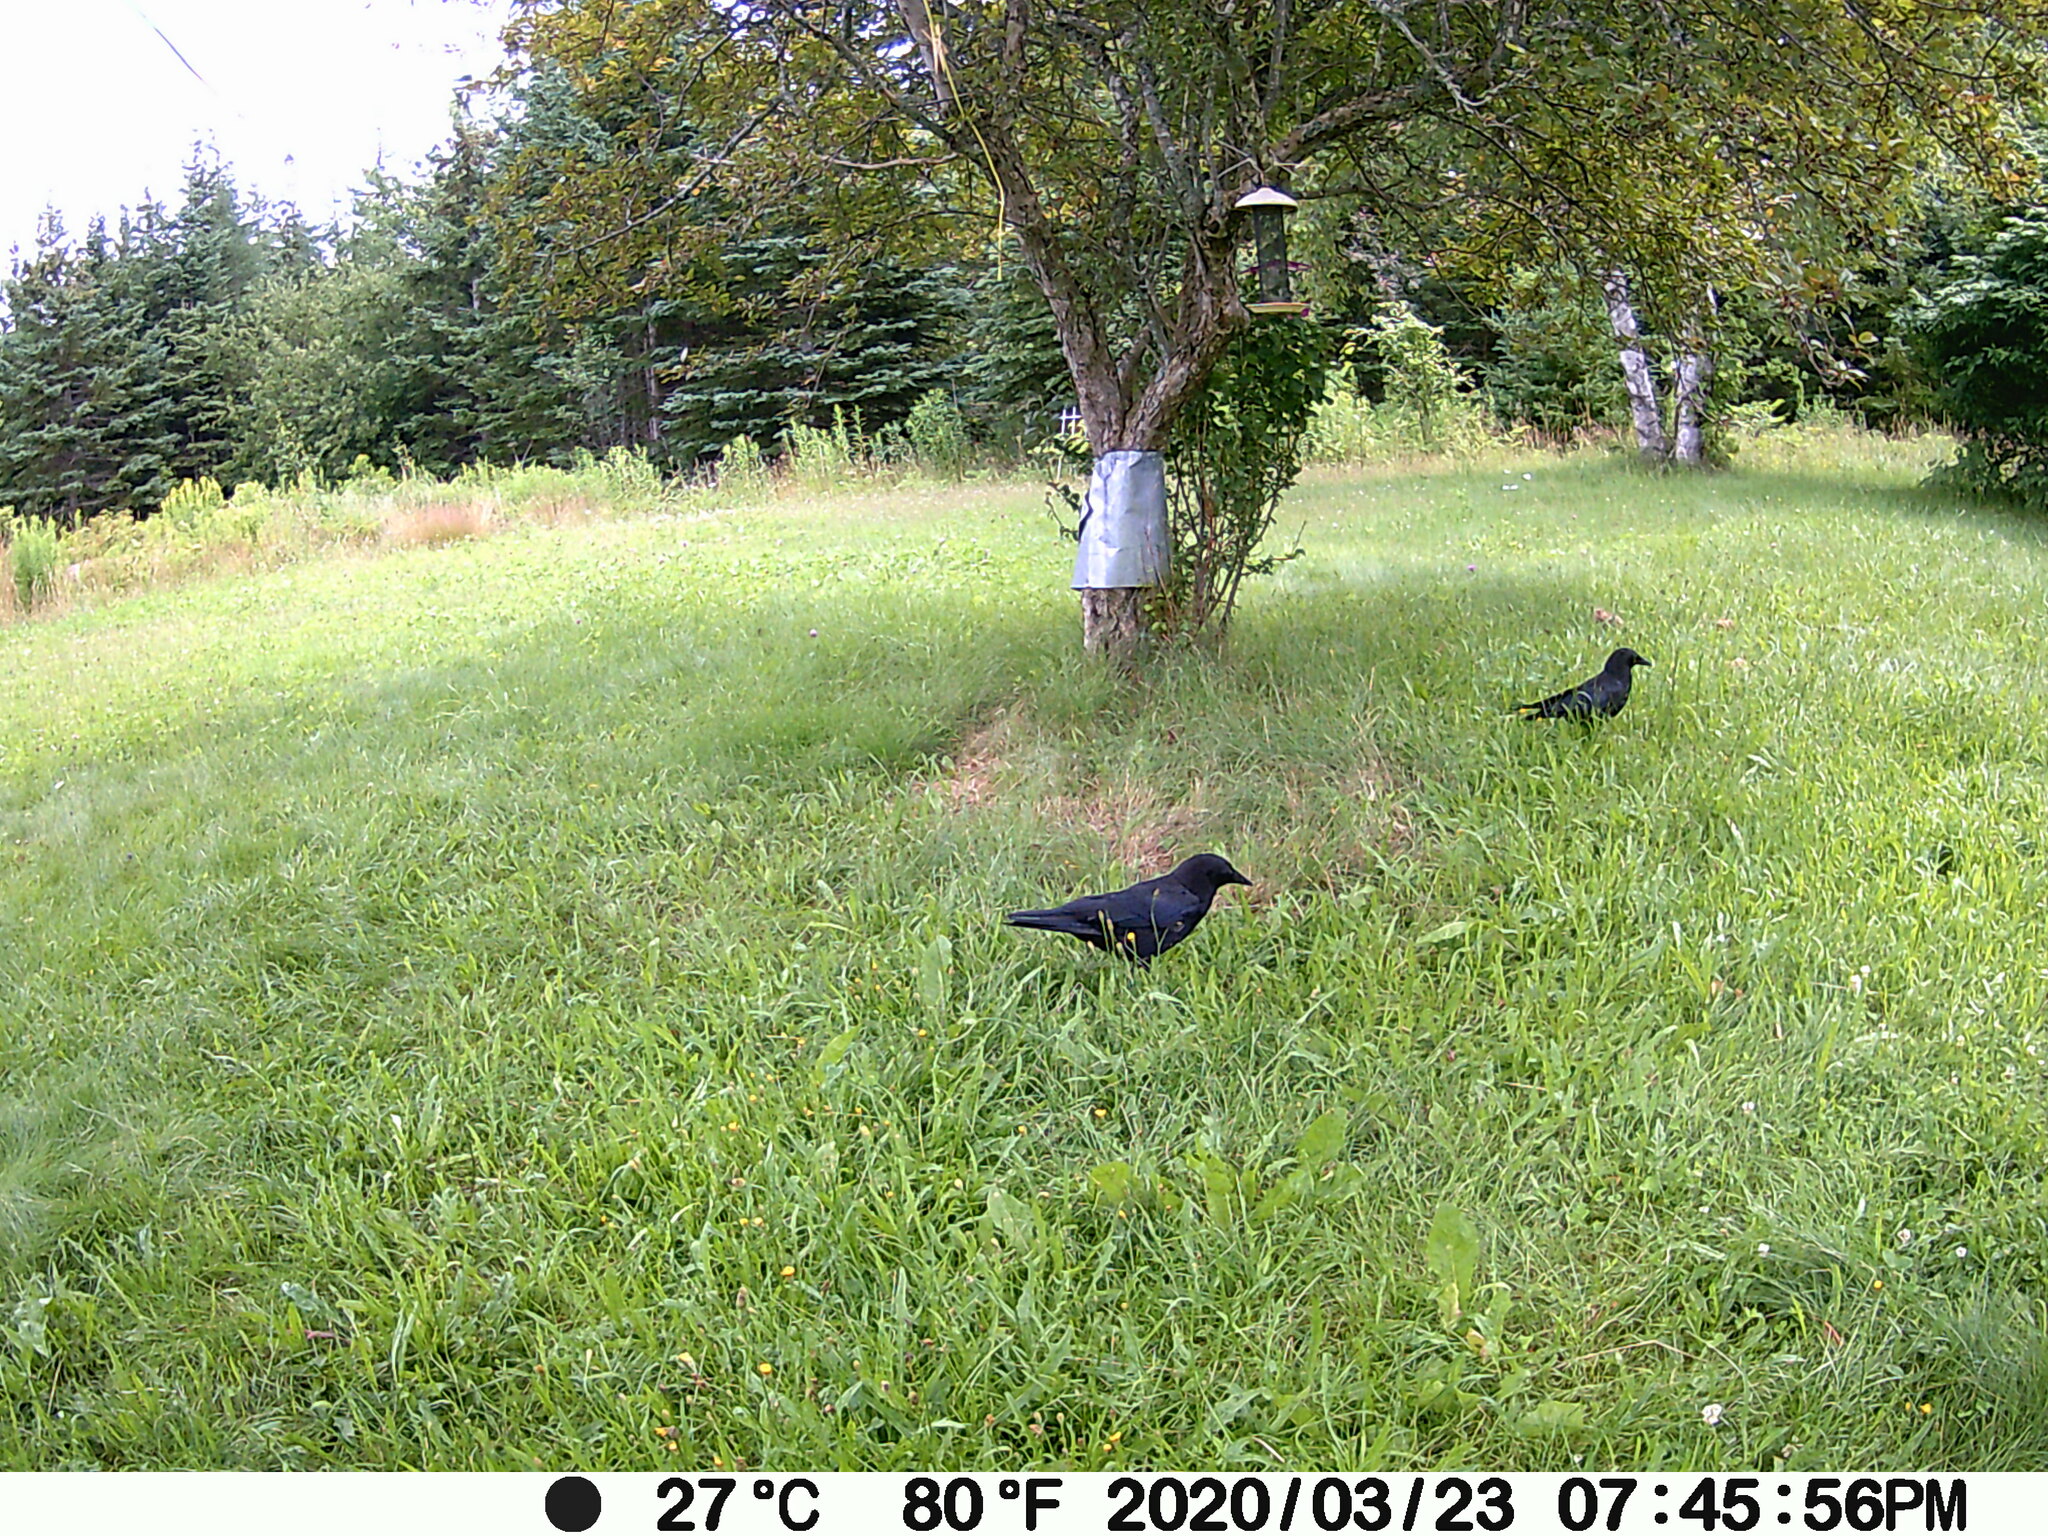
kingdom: Animalia
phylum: Chordata
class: Aves
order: Passeriformes
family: Corvidae
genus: Corvus
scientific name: Corvus brachyrhynchos
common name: American crow
